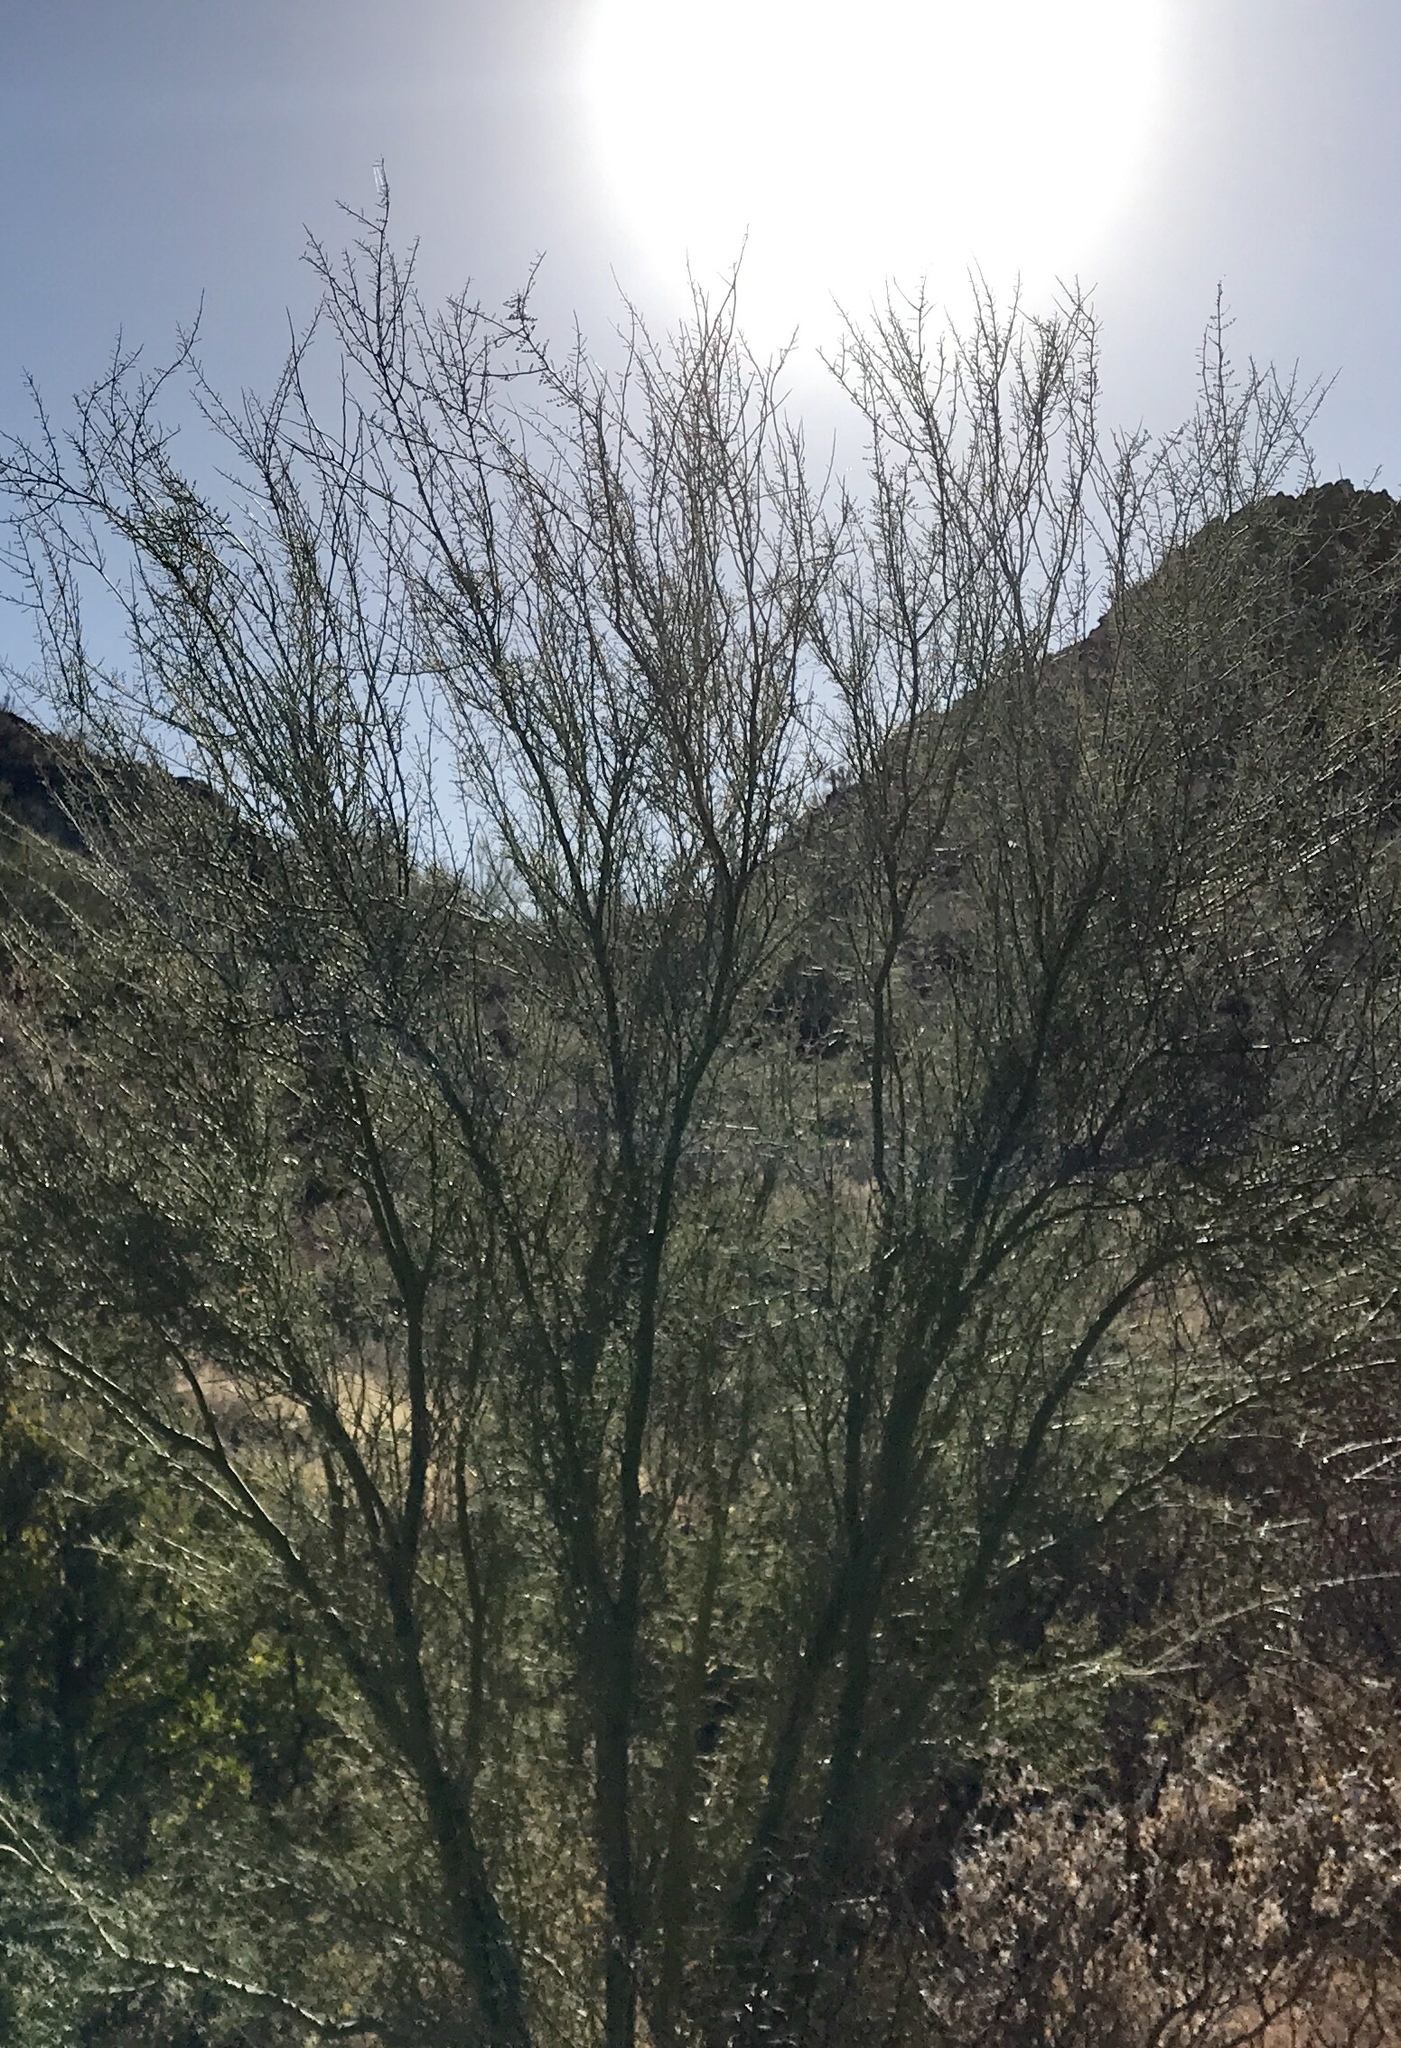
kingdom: Plantae
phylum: Tracheophyta
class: Magnoliopsida
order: Fabales
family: Fabaceae
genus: Parkinsonia
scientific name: Parkinsonia microphylla
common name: Yellow paloverde
